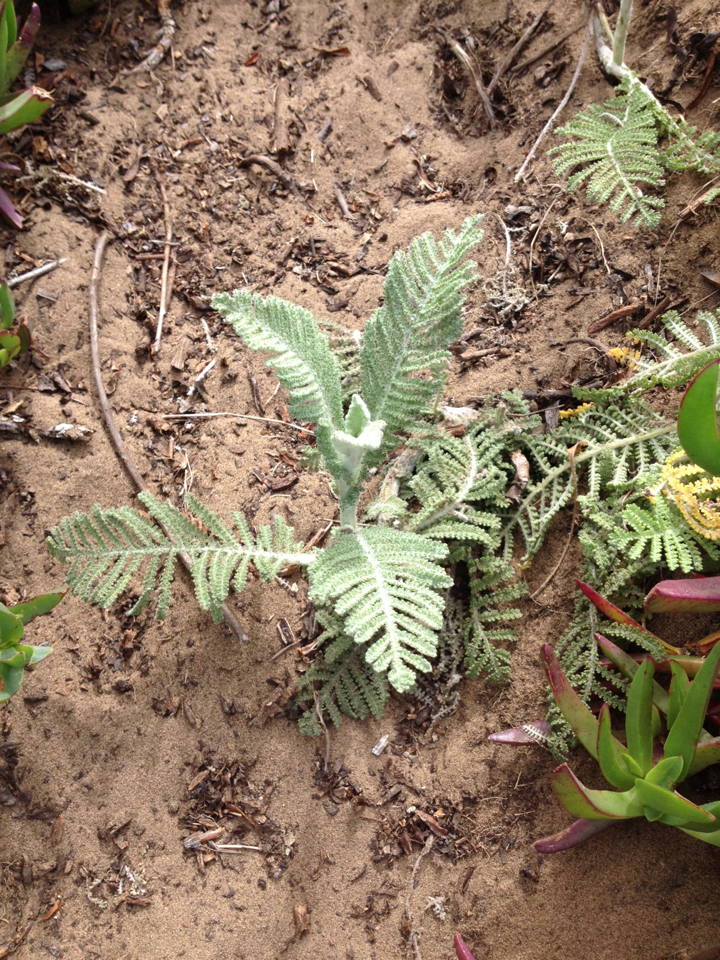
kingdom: Plantae
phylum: Tracheophyta
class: Magnoliopsida
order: Asterales
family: Asteraceae
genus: Tanacetum
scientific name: Tanacetum bipinnatum
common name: Dwarf tansy
